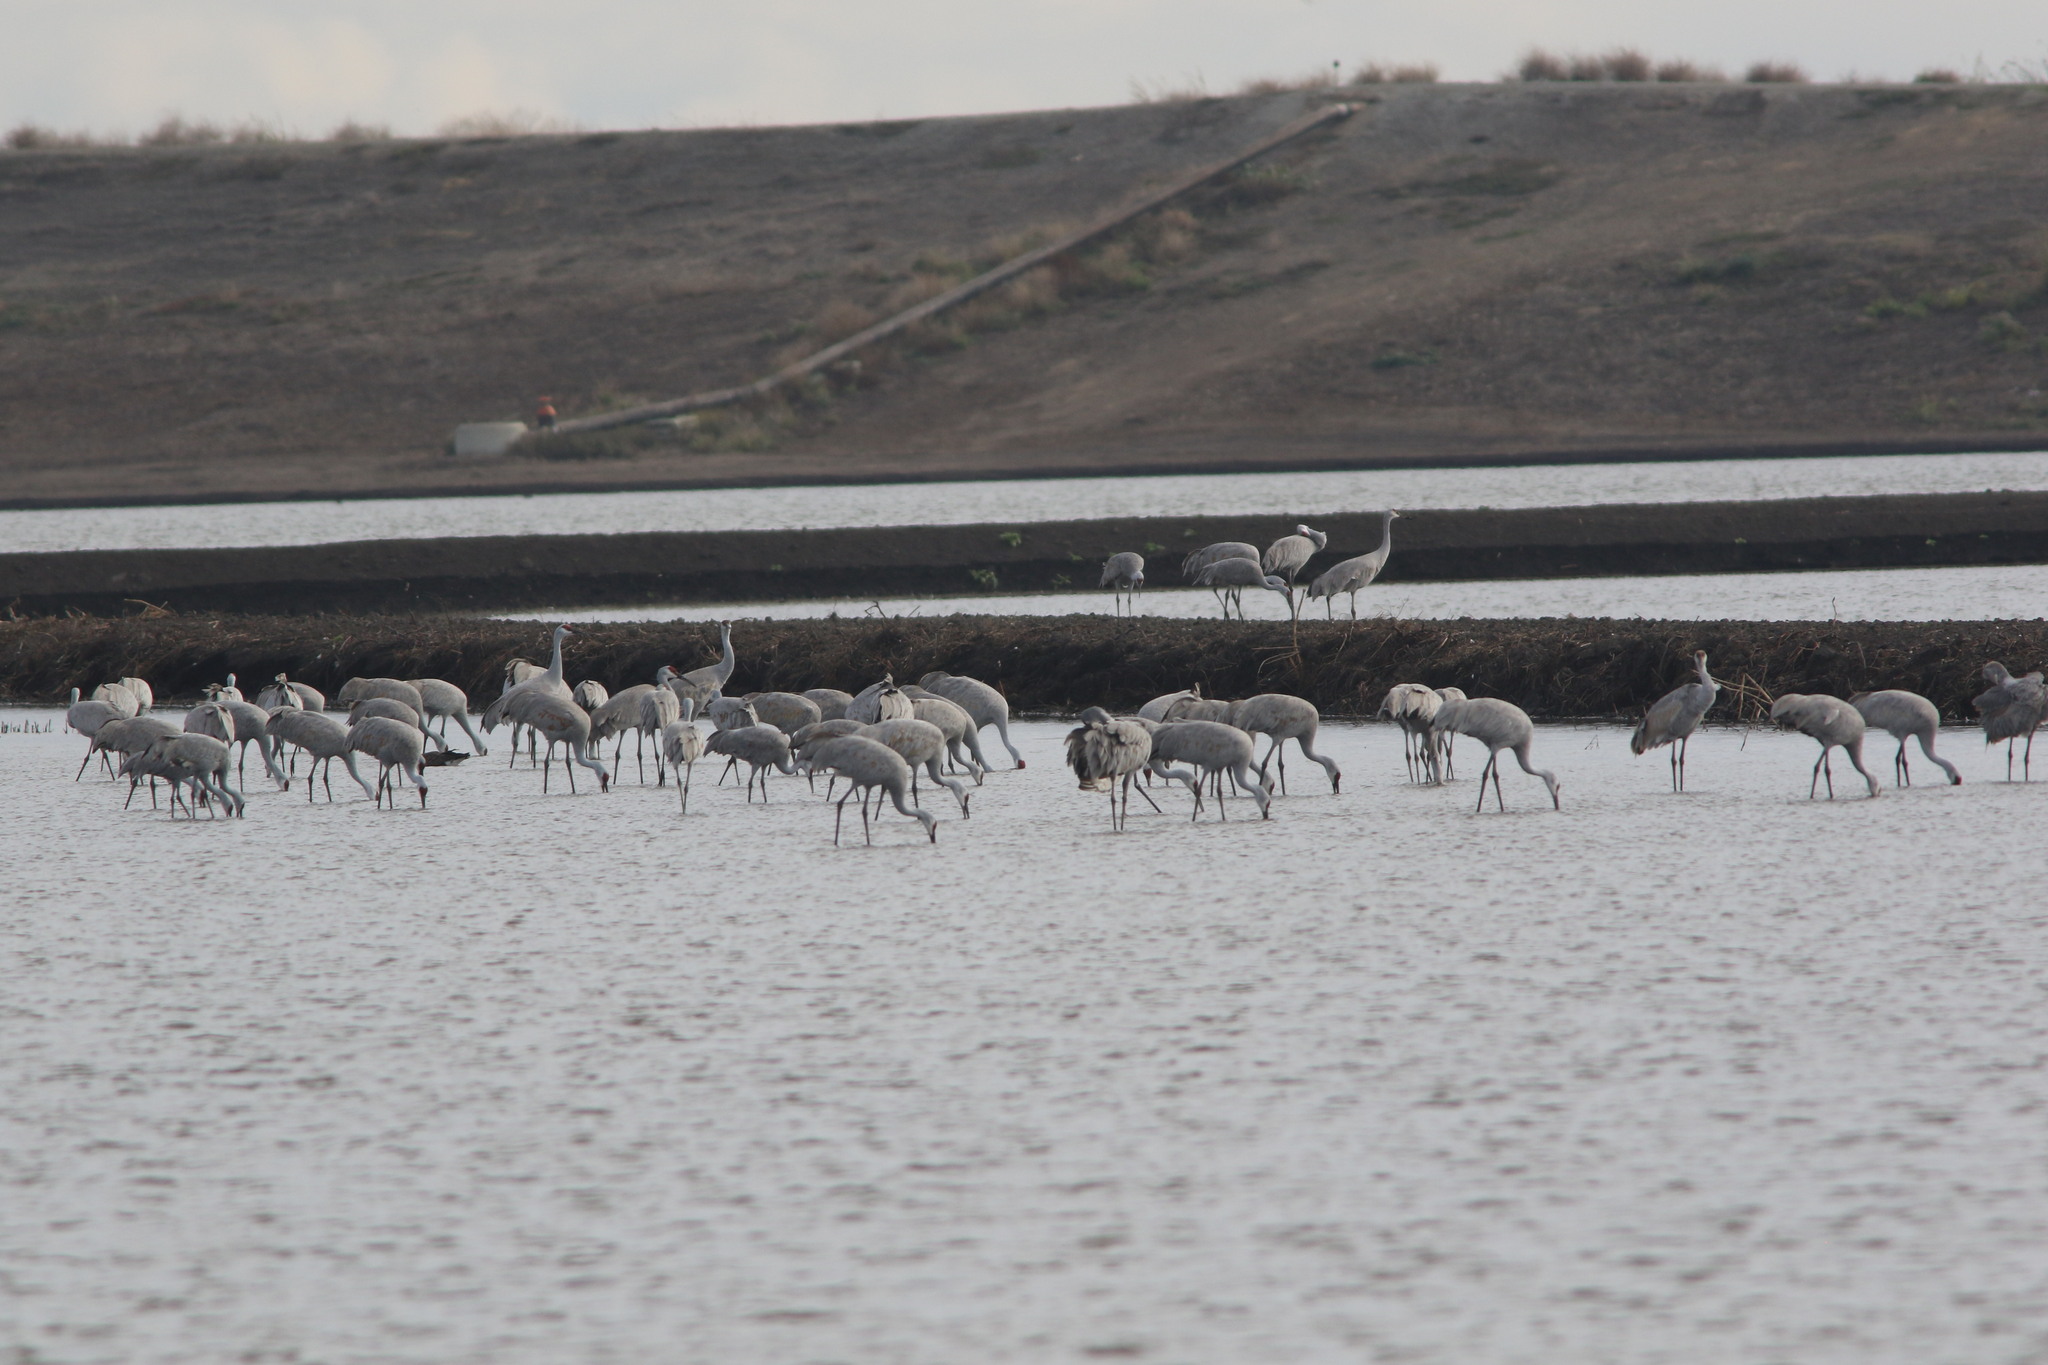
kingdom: Animalia
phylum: Chordata
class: Aves
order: Gruiformes
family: Gruidae
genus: Grus
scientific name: Grus canadensis
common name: Sandhill crane
